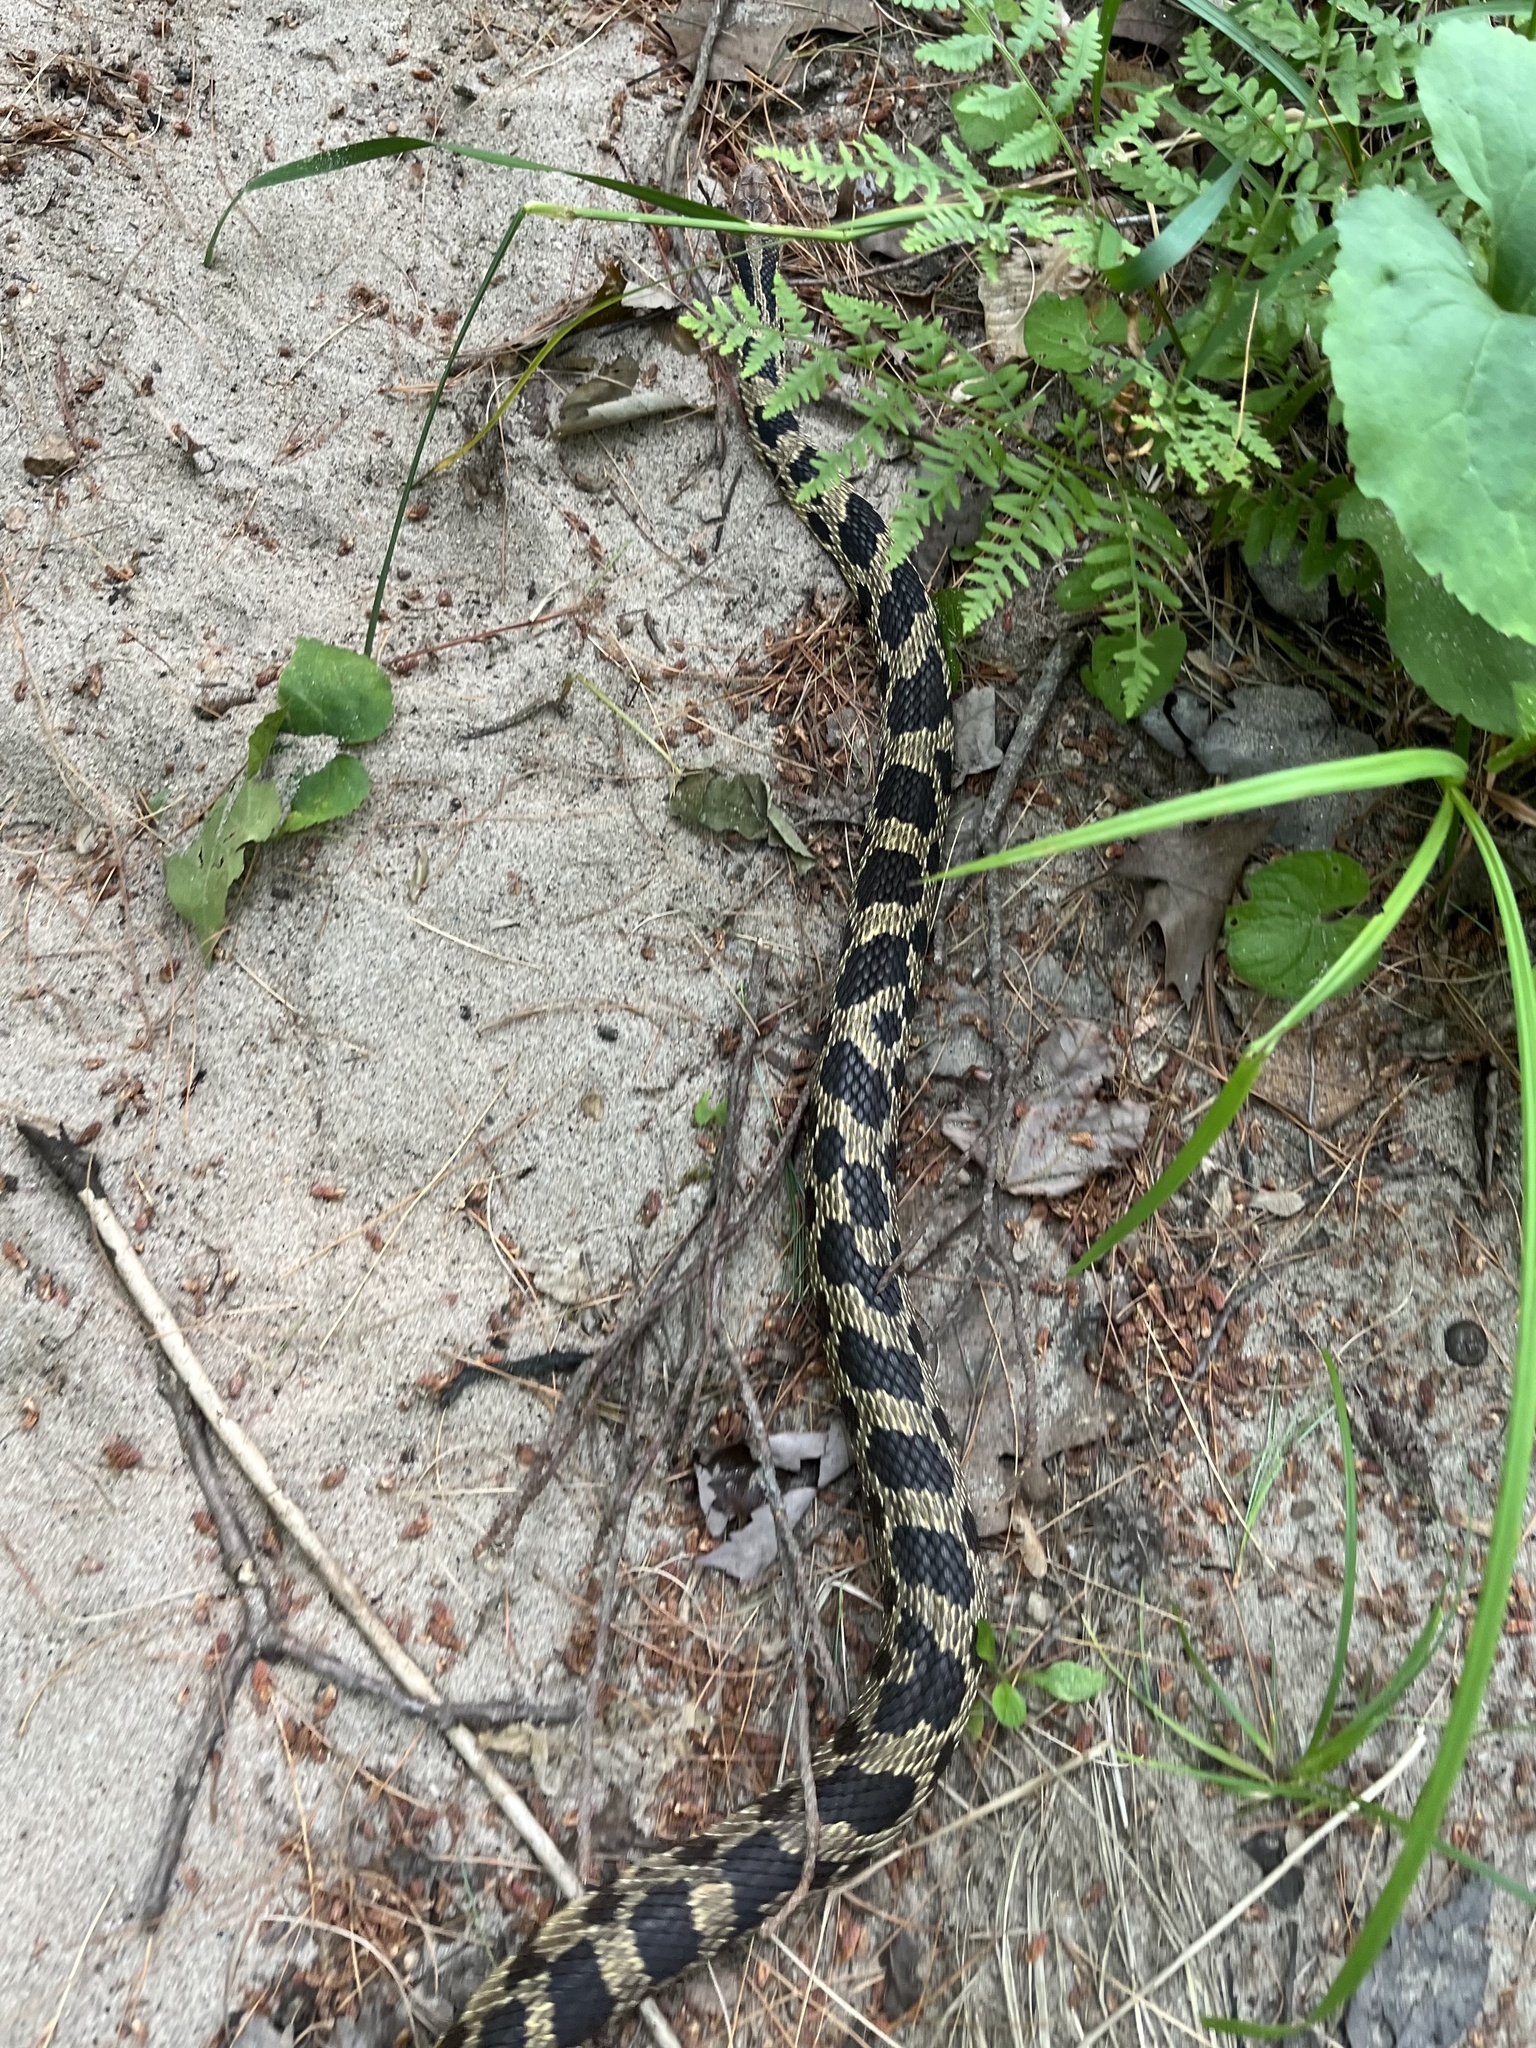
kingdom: Animalia
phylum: Chordata
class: Squamata
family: Colubridae
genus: Pantherophis
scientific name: Pantherophis vulpinus
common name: Eastern fox snake
